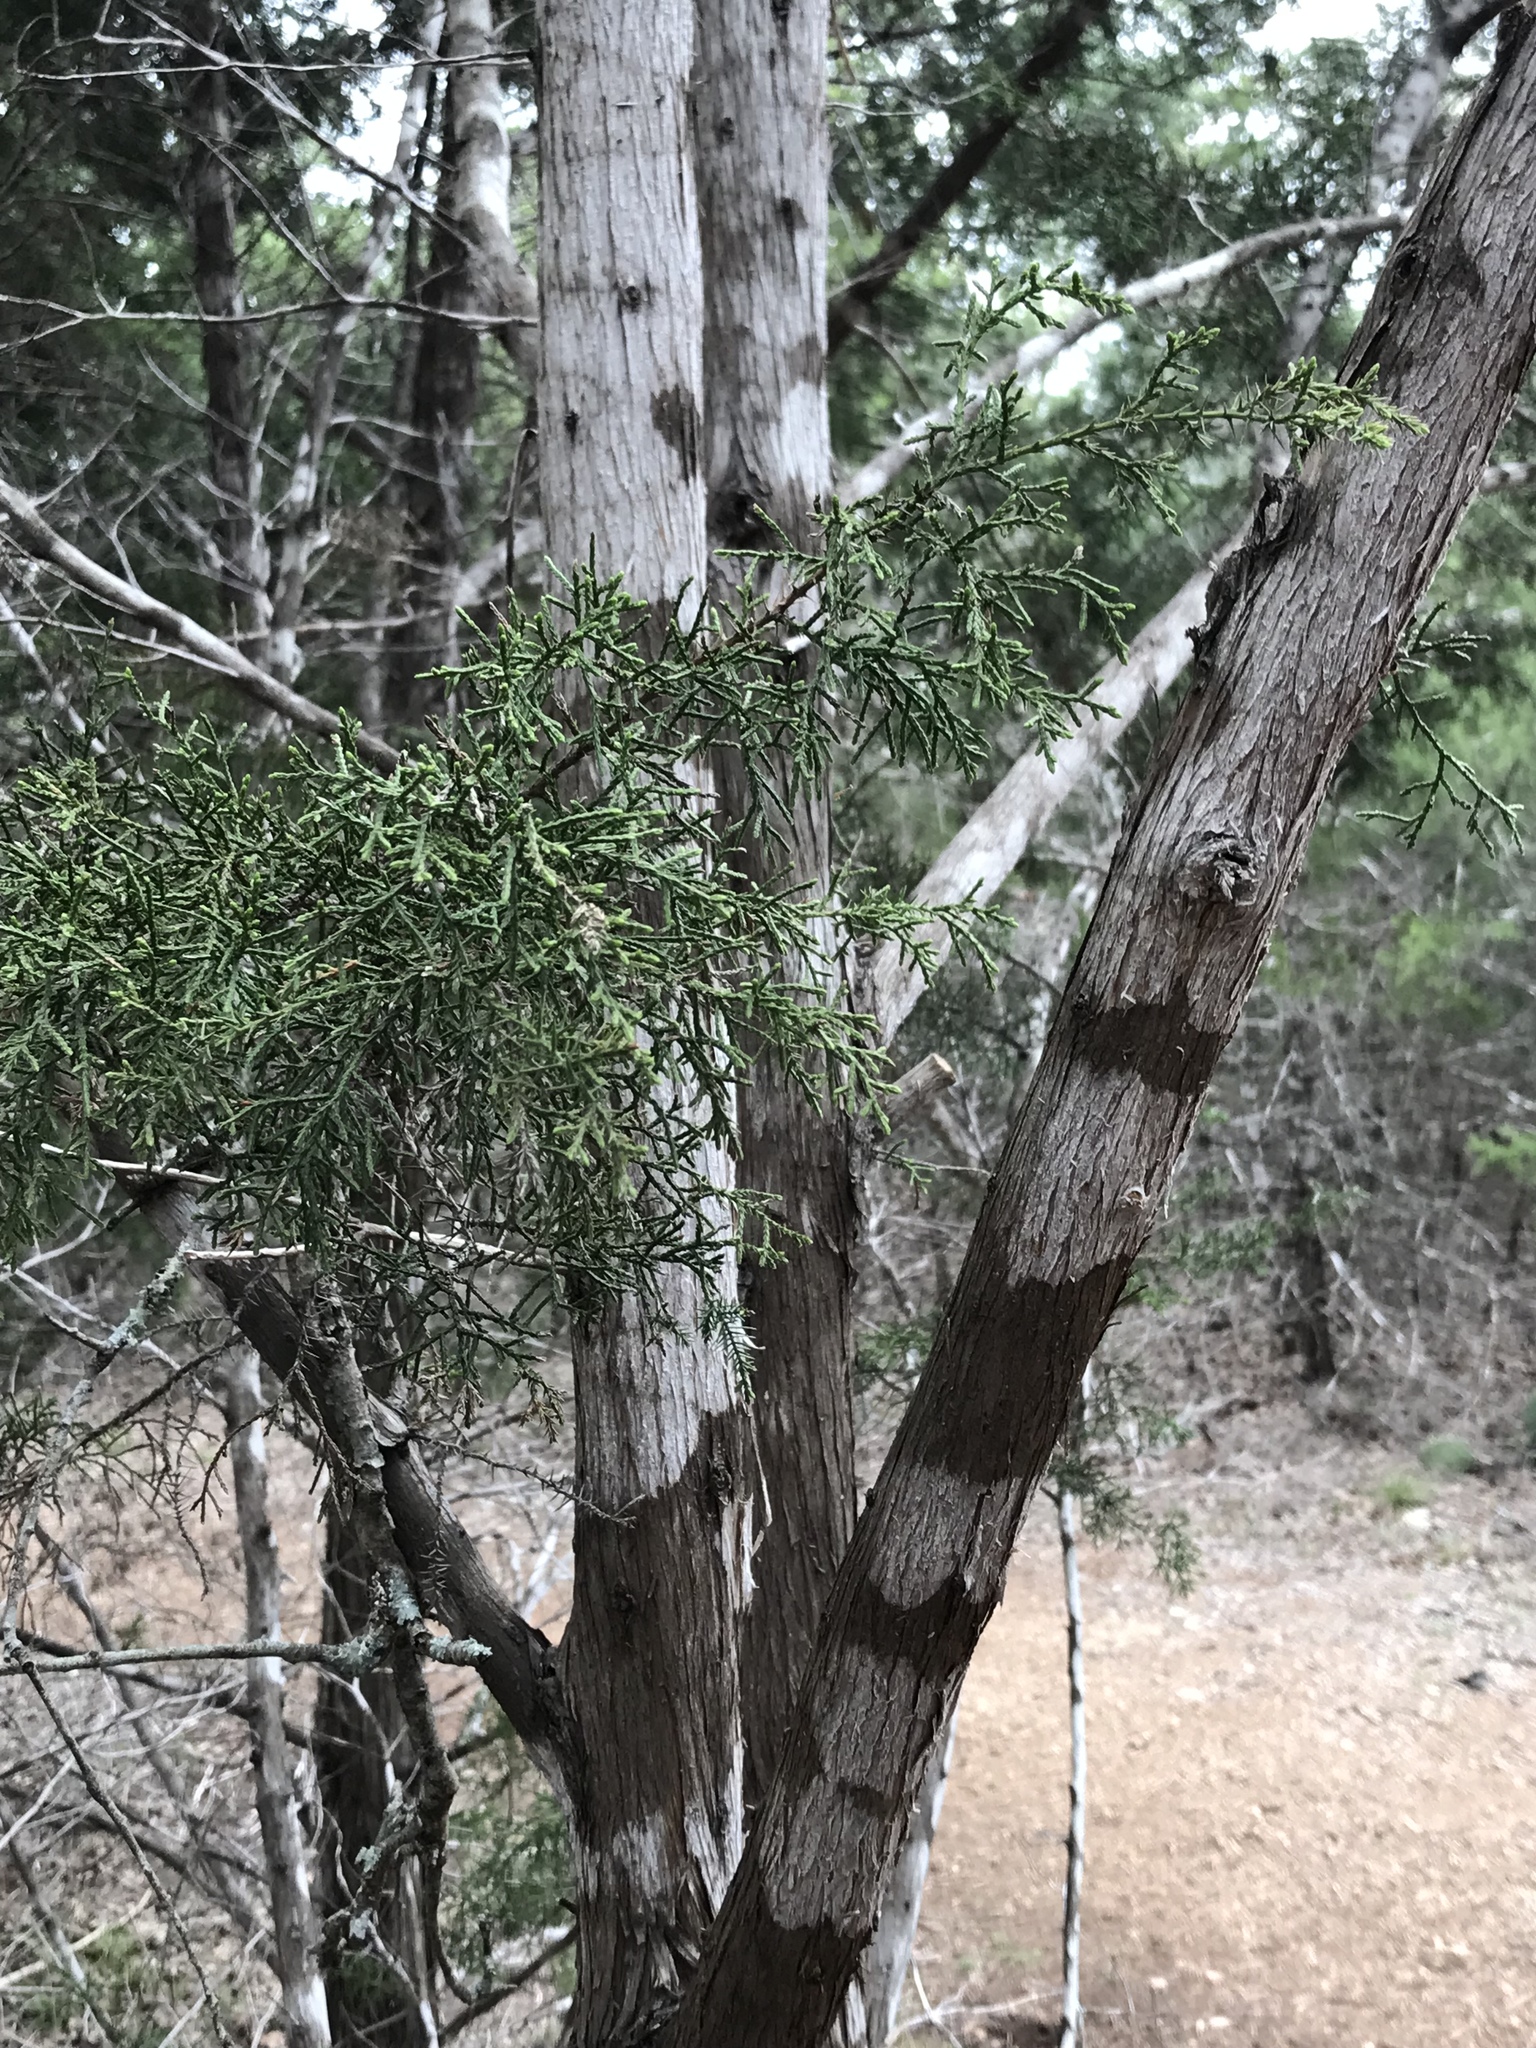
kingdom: Plantae
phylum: Tracheophyta
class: Pinopsida
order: Pinales
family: Cupressaceae
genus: Juniperus
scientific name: Juniperus ashei
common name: Mexican juniper
